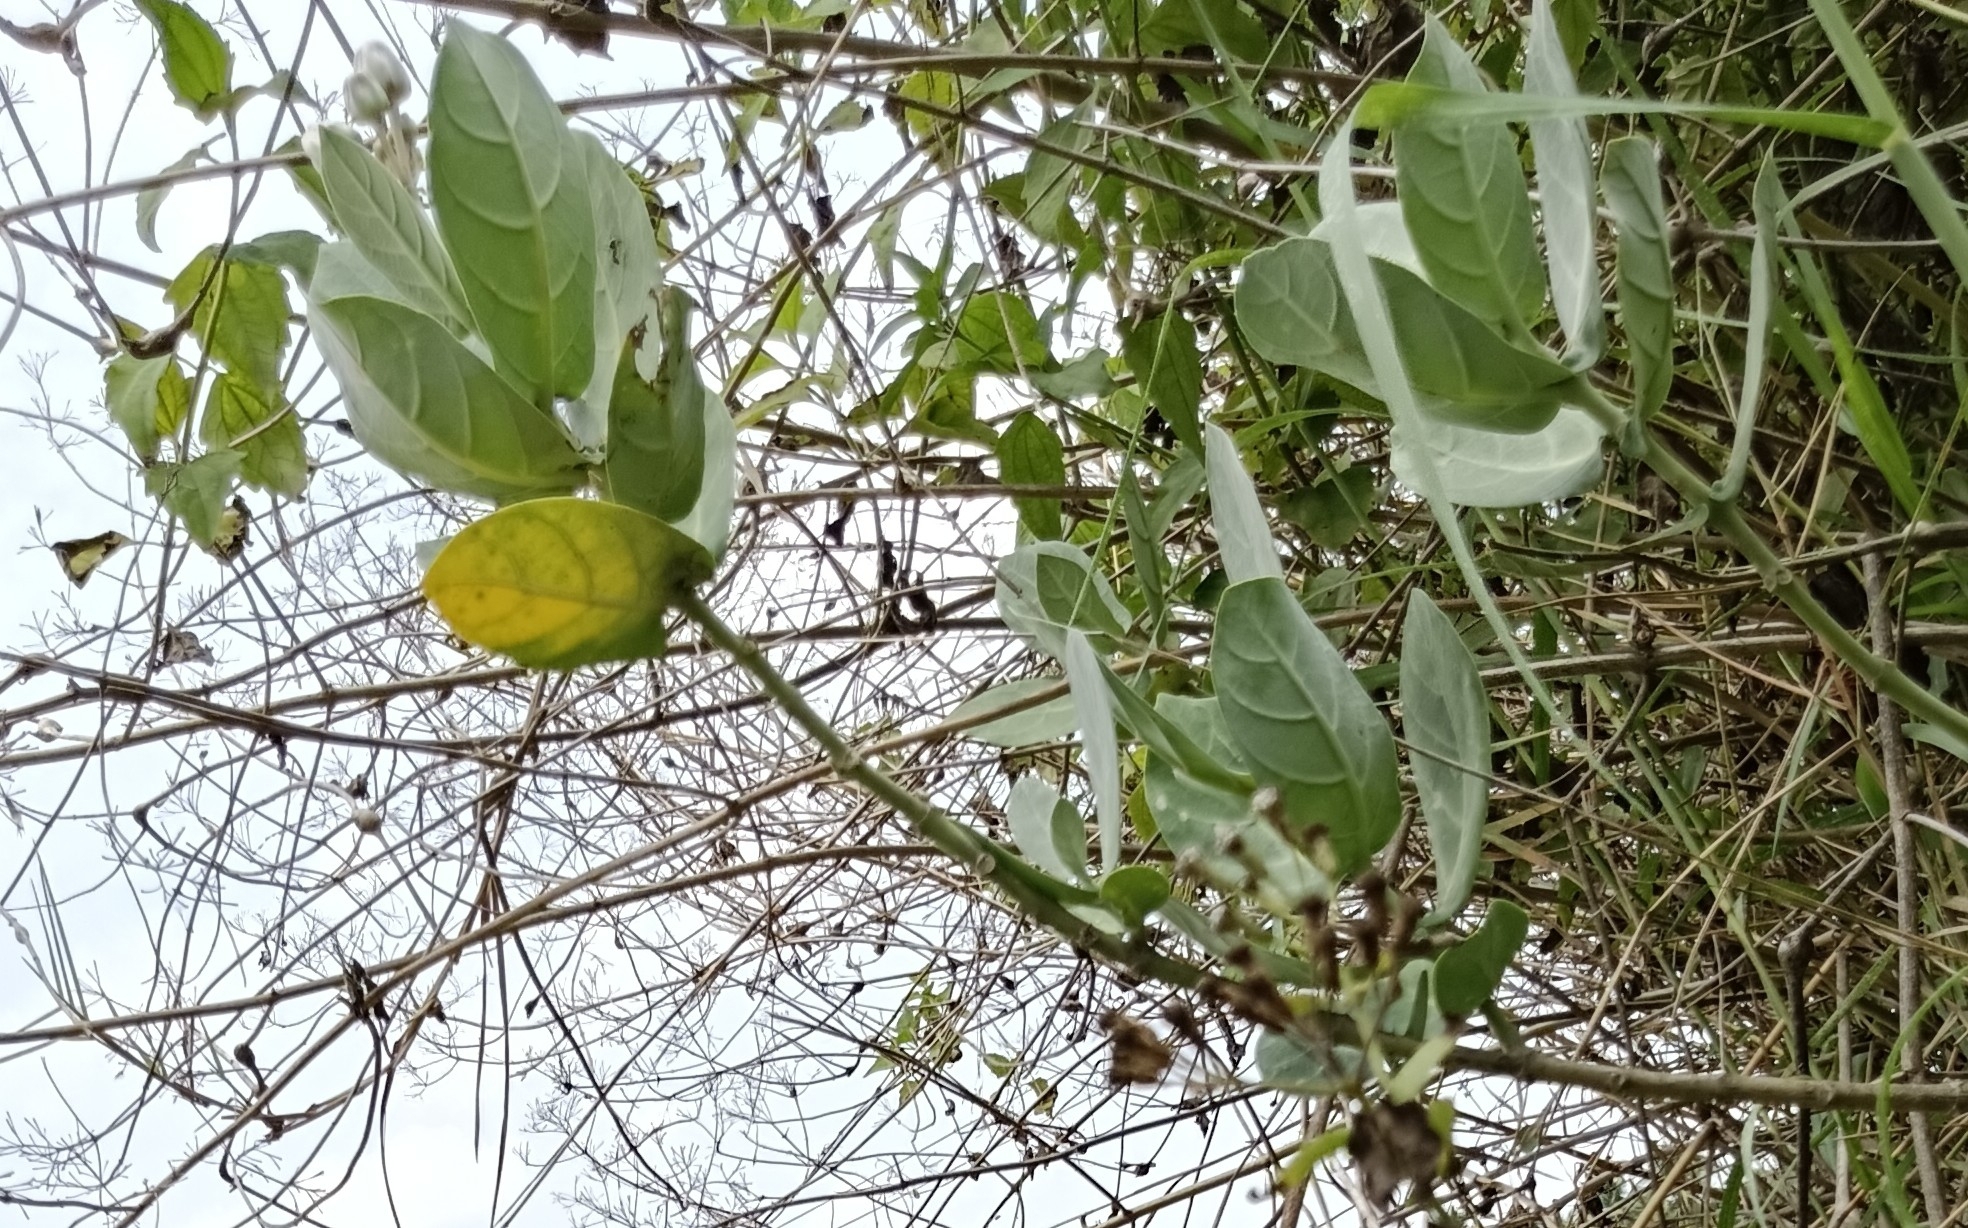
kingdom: Plantae
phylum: Tracheophyta
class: Magnoliopsida
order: Gentianales
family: Apocynaceae
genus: Calotropis
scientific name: Calotropis gigantea
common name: Crown flower
